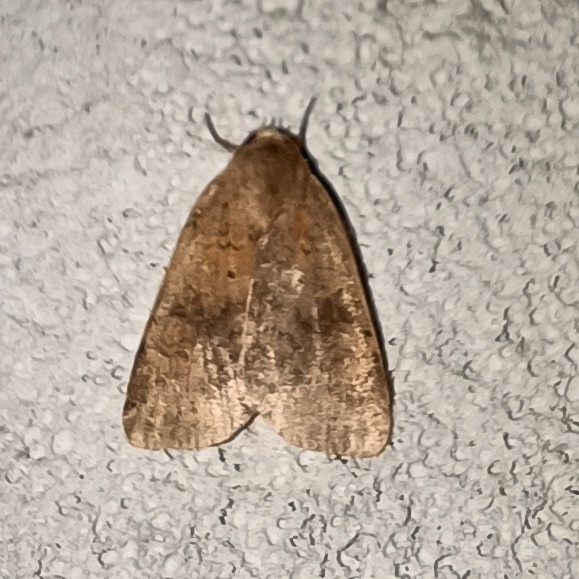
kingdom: Animalia
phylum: Arthropoda
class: Insecta
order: Lepidoptera
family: Noctuidae
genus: Diarsia
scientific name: Diarsia dahlii
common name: Barred chestnut
